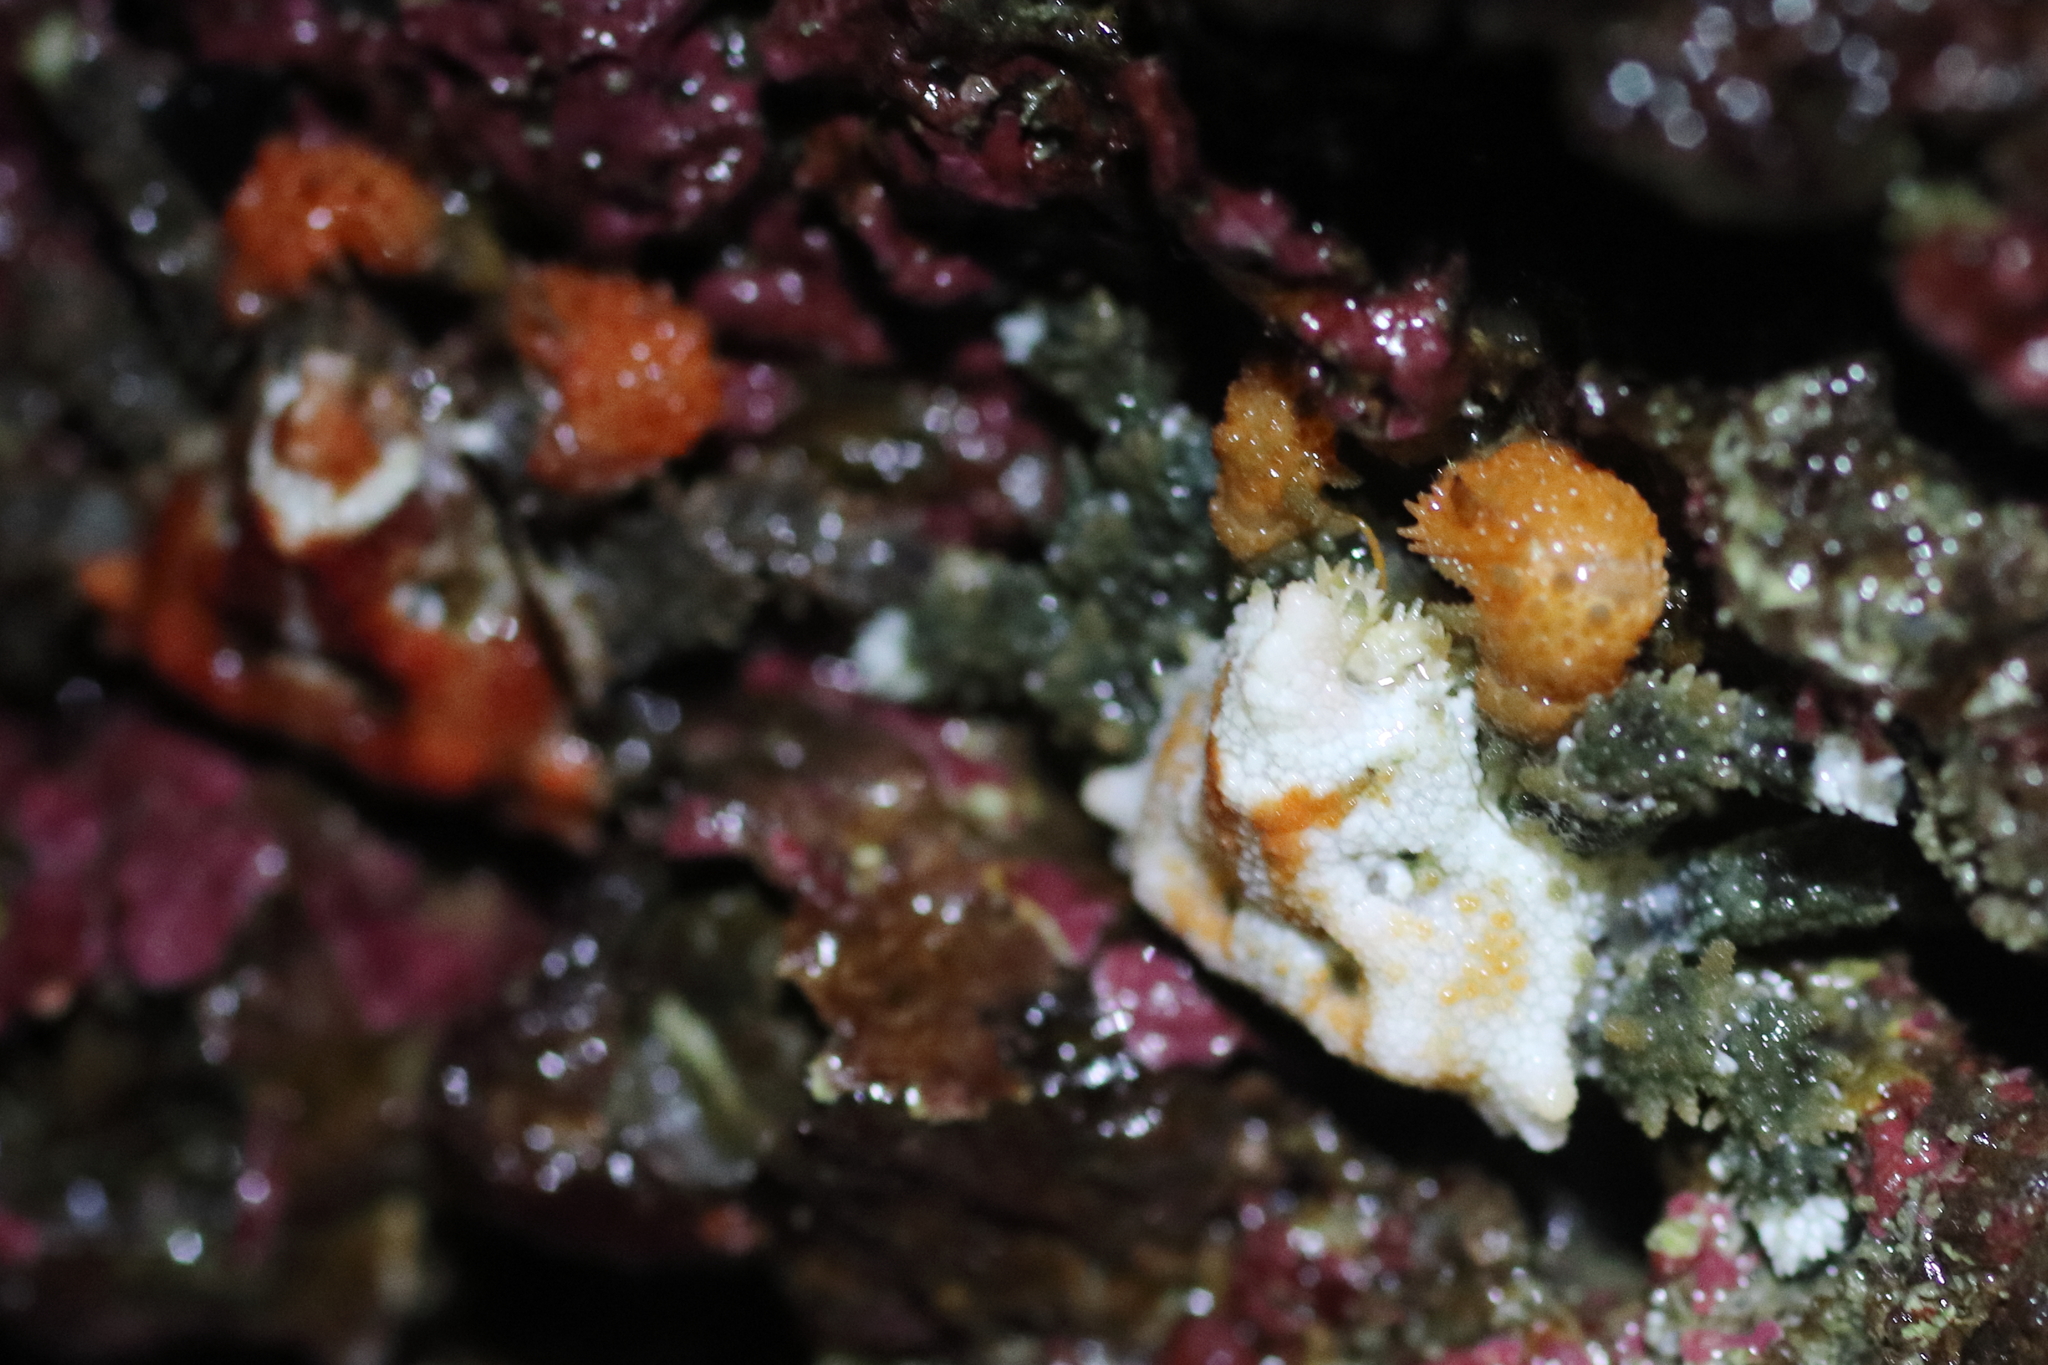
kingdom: Animalia
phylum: Arthropoda
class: Malacostraca
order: Decapoda
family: Lithodidae
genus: Phyllolithodes
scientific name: Phyllolithodes papillosus
